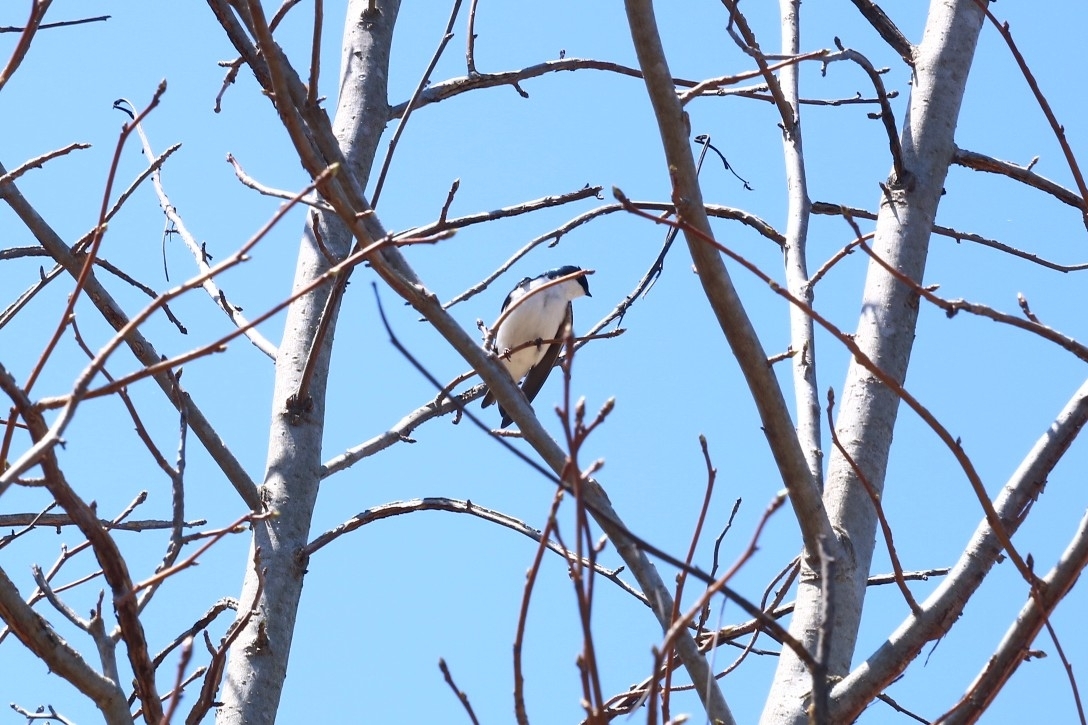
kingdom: Animalia
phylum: Chordata
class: Aves
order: Passeriformes
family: Hirundinidae
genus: Tachycineta
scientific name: Tachycineta bicolor
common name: Tree swallow
